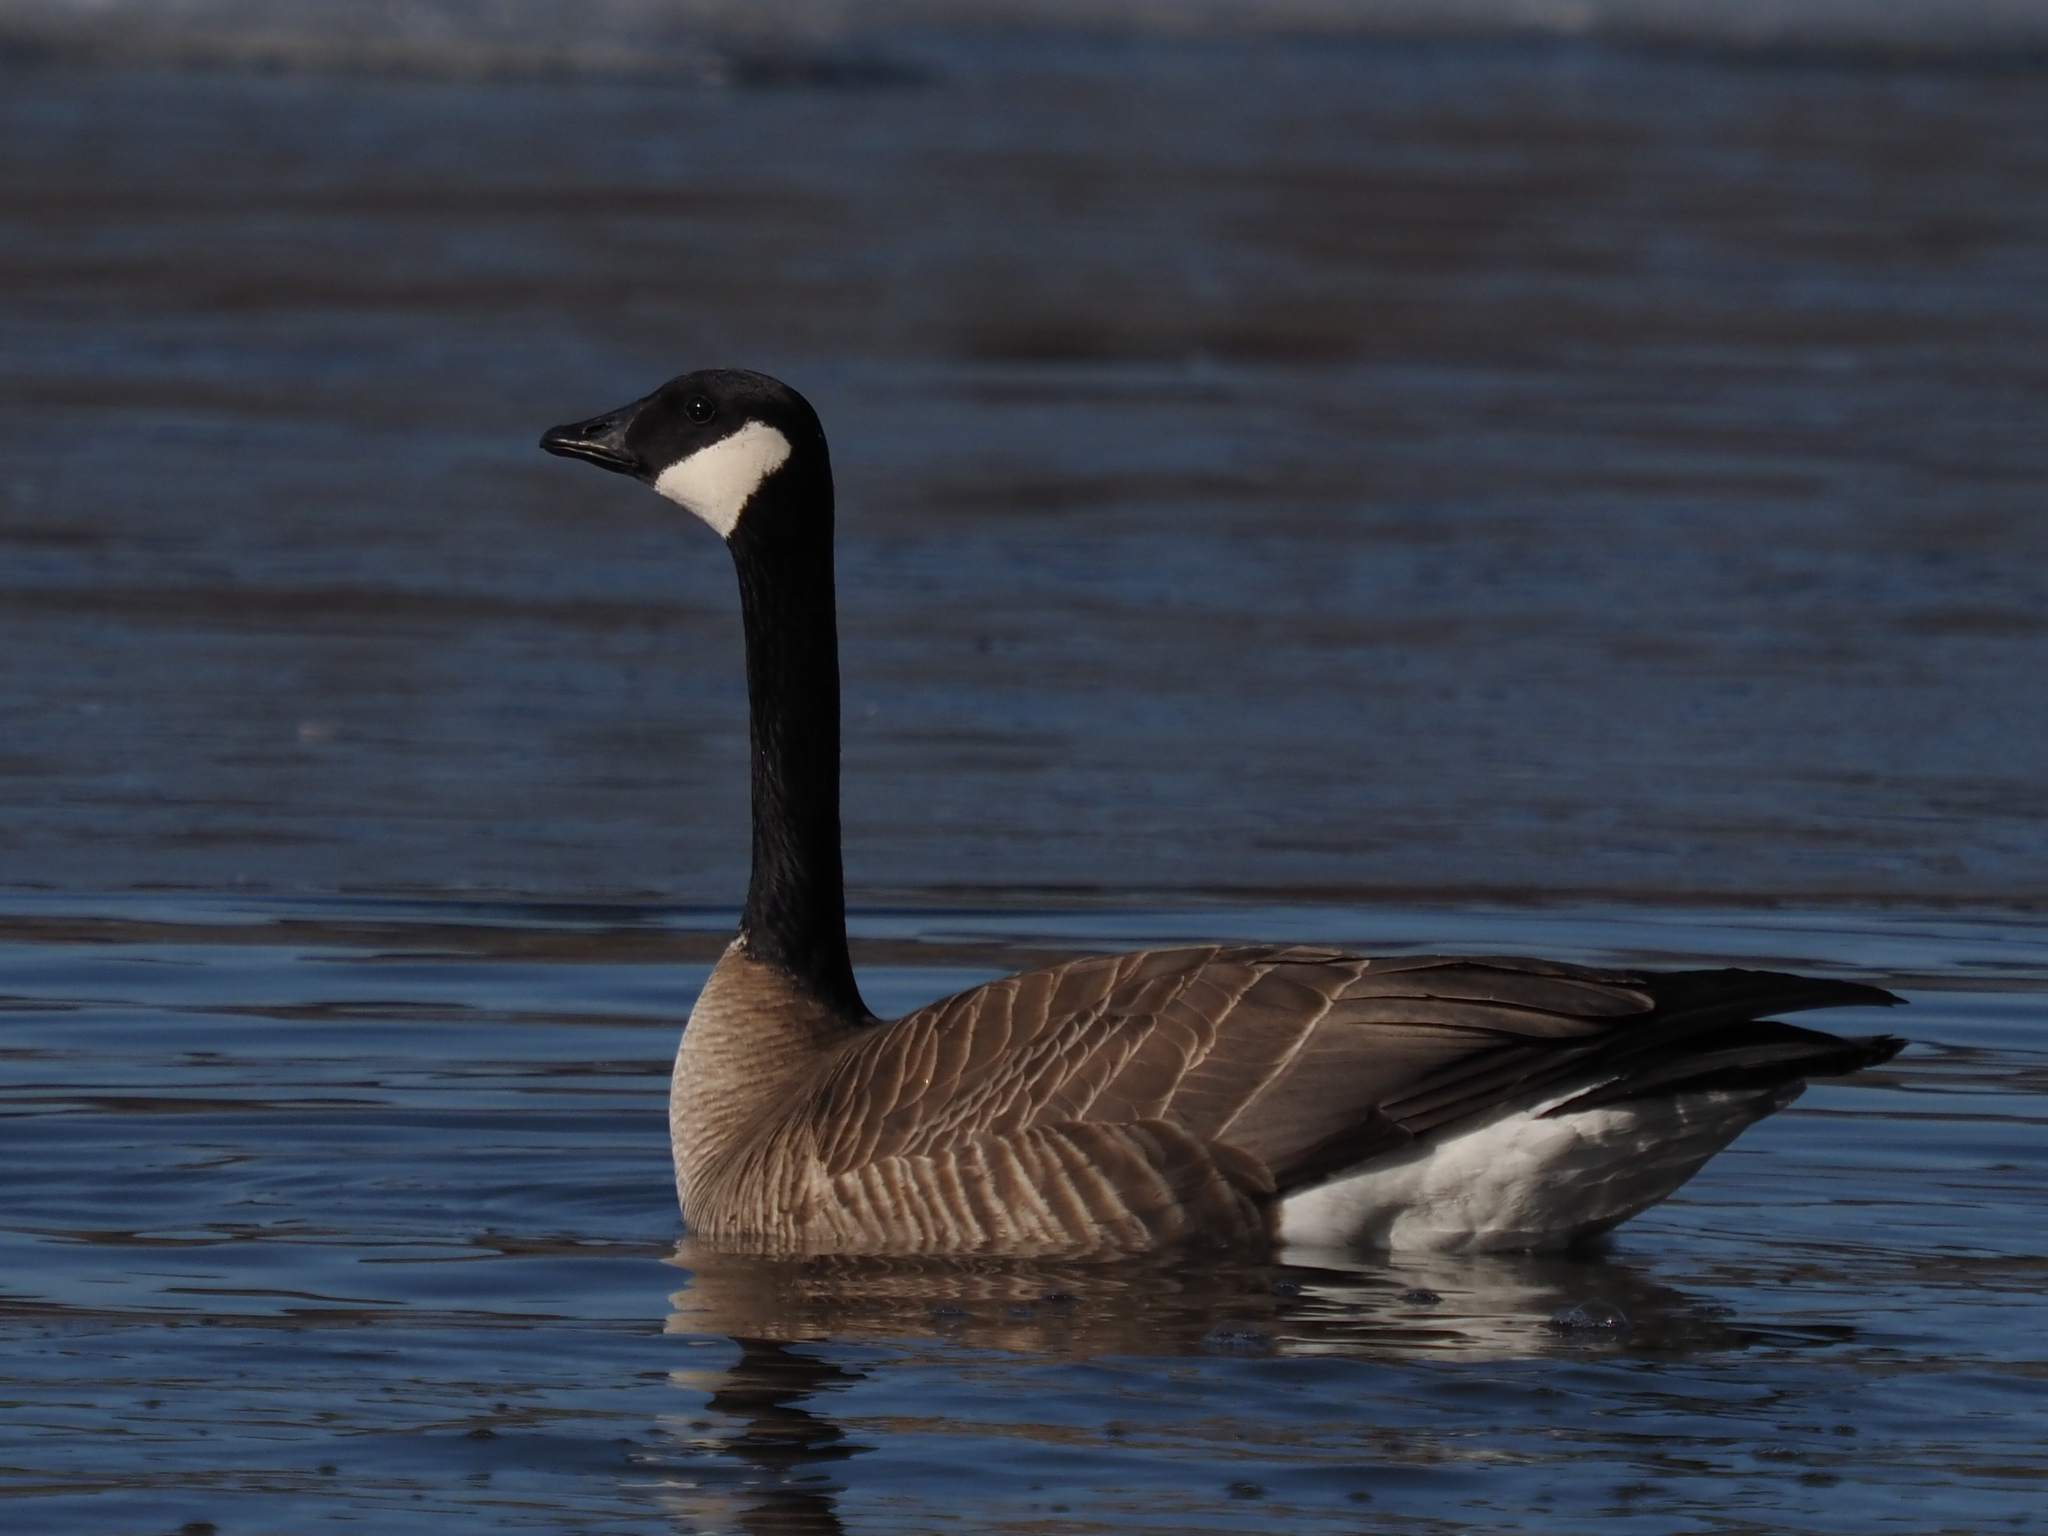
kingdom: Animalia
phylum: Chordata
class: Aves
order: Anseriformes
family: Anatidae
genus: Branta
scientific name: Branta canadensis
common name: Canada goose
